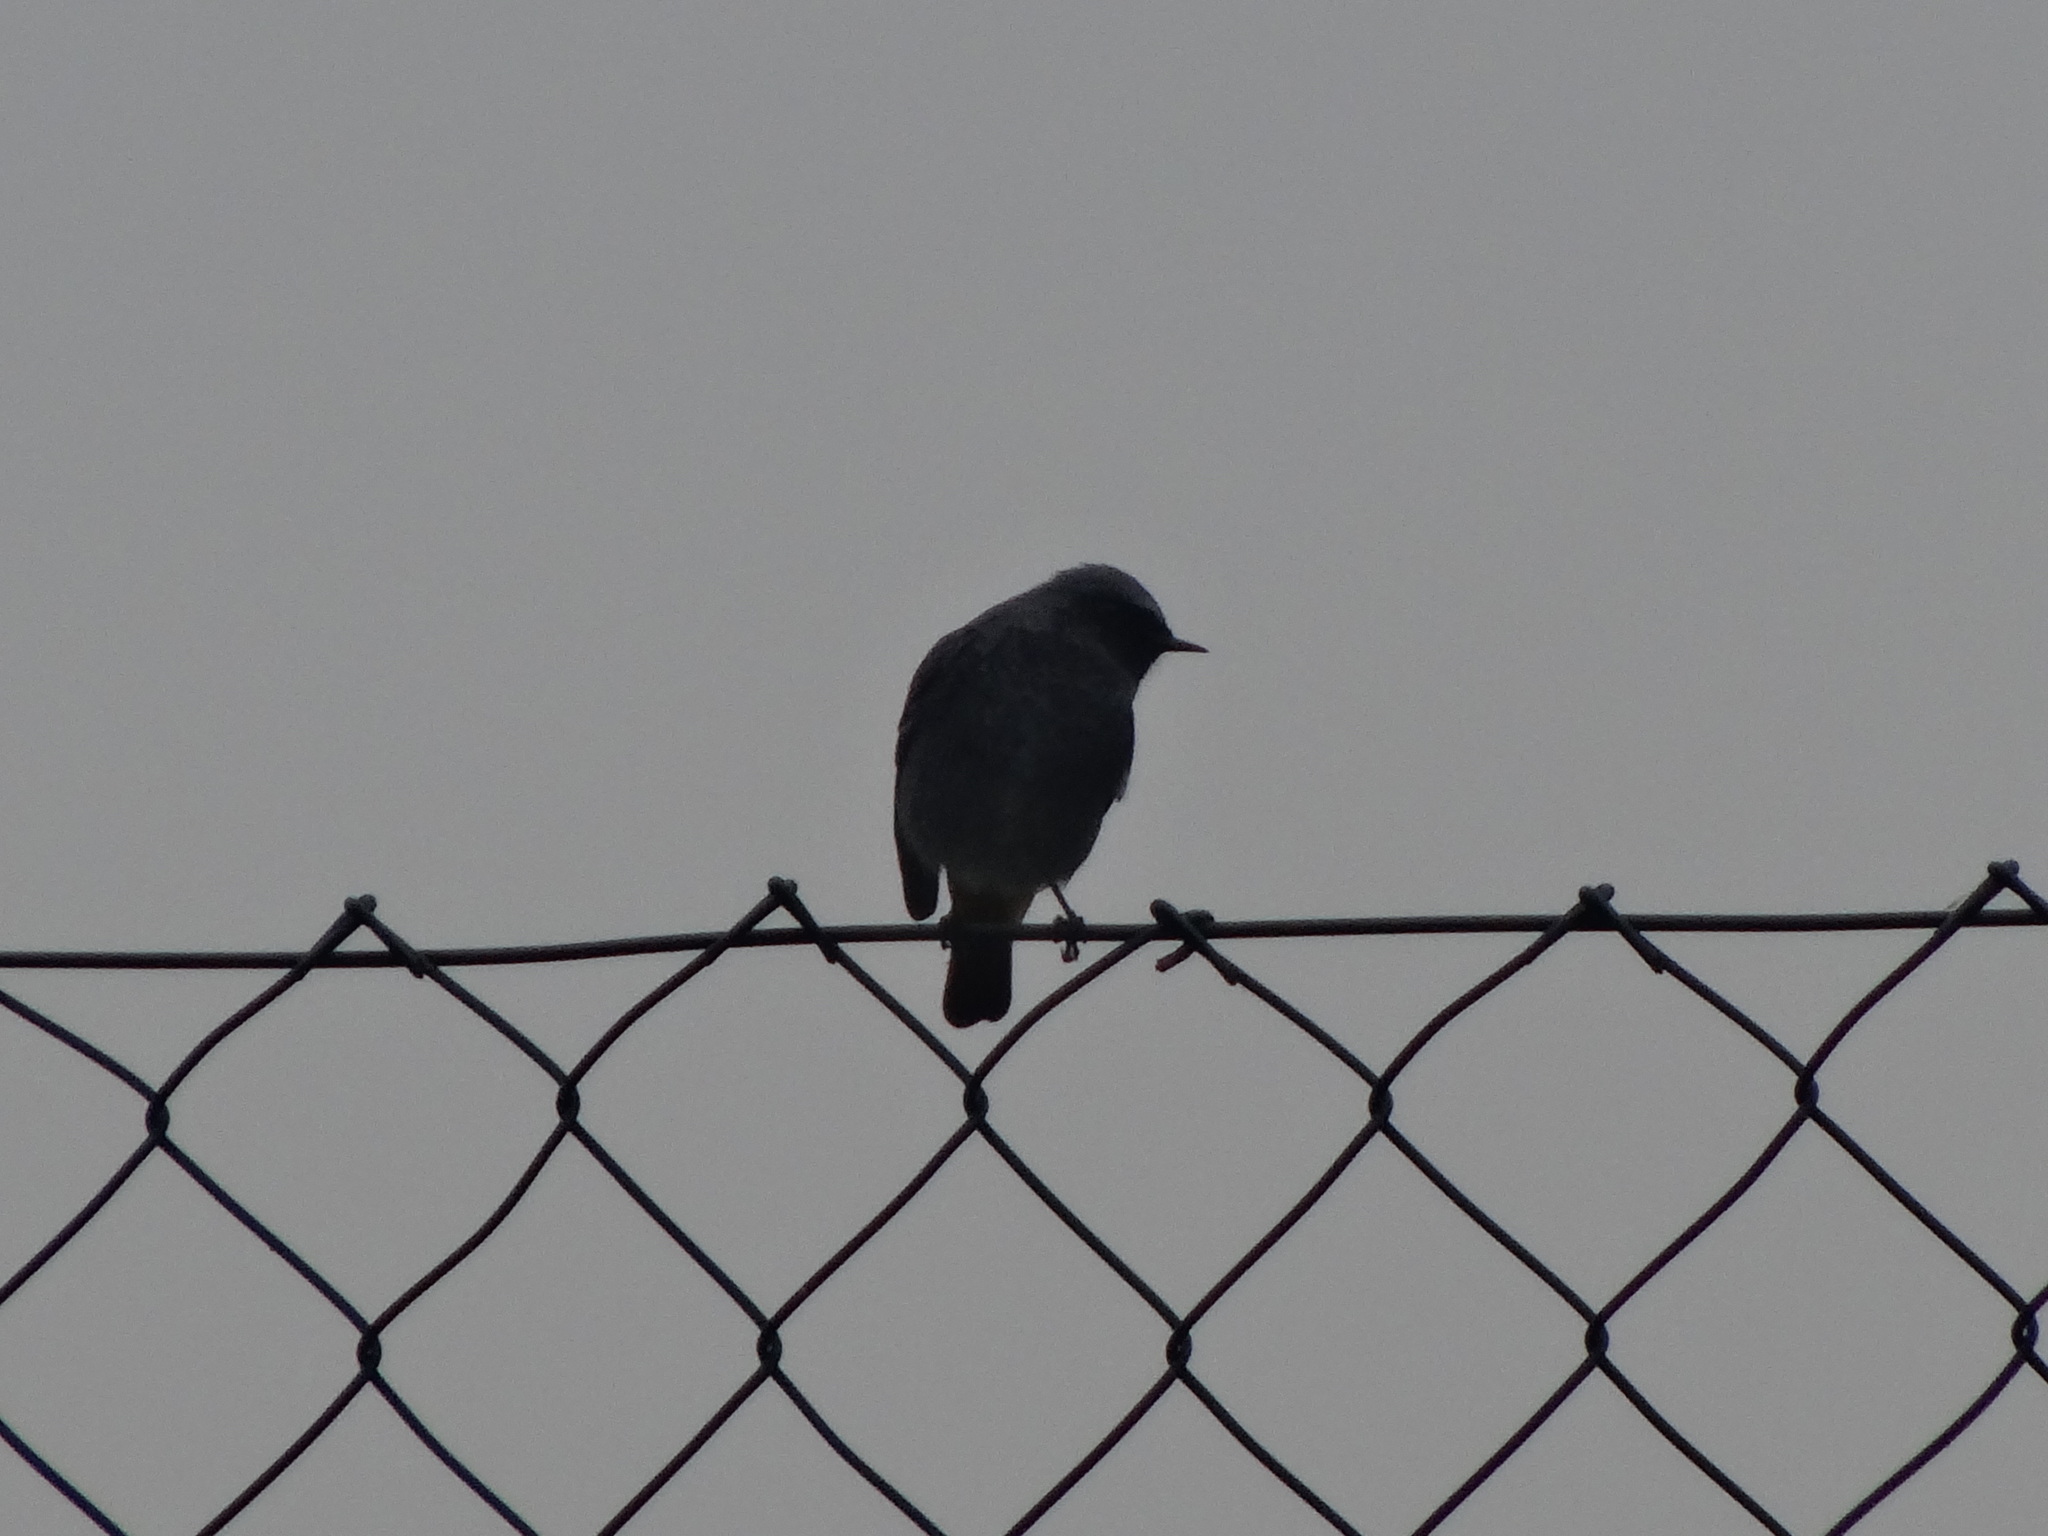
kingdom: Animalia
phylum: Chordata
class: Aves
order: Passeriformes
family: Muscicapidae
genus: Phoenicurus
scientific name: Phoenicurus ochruros
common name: Black redstart
